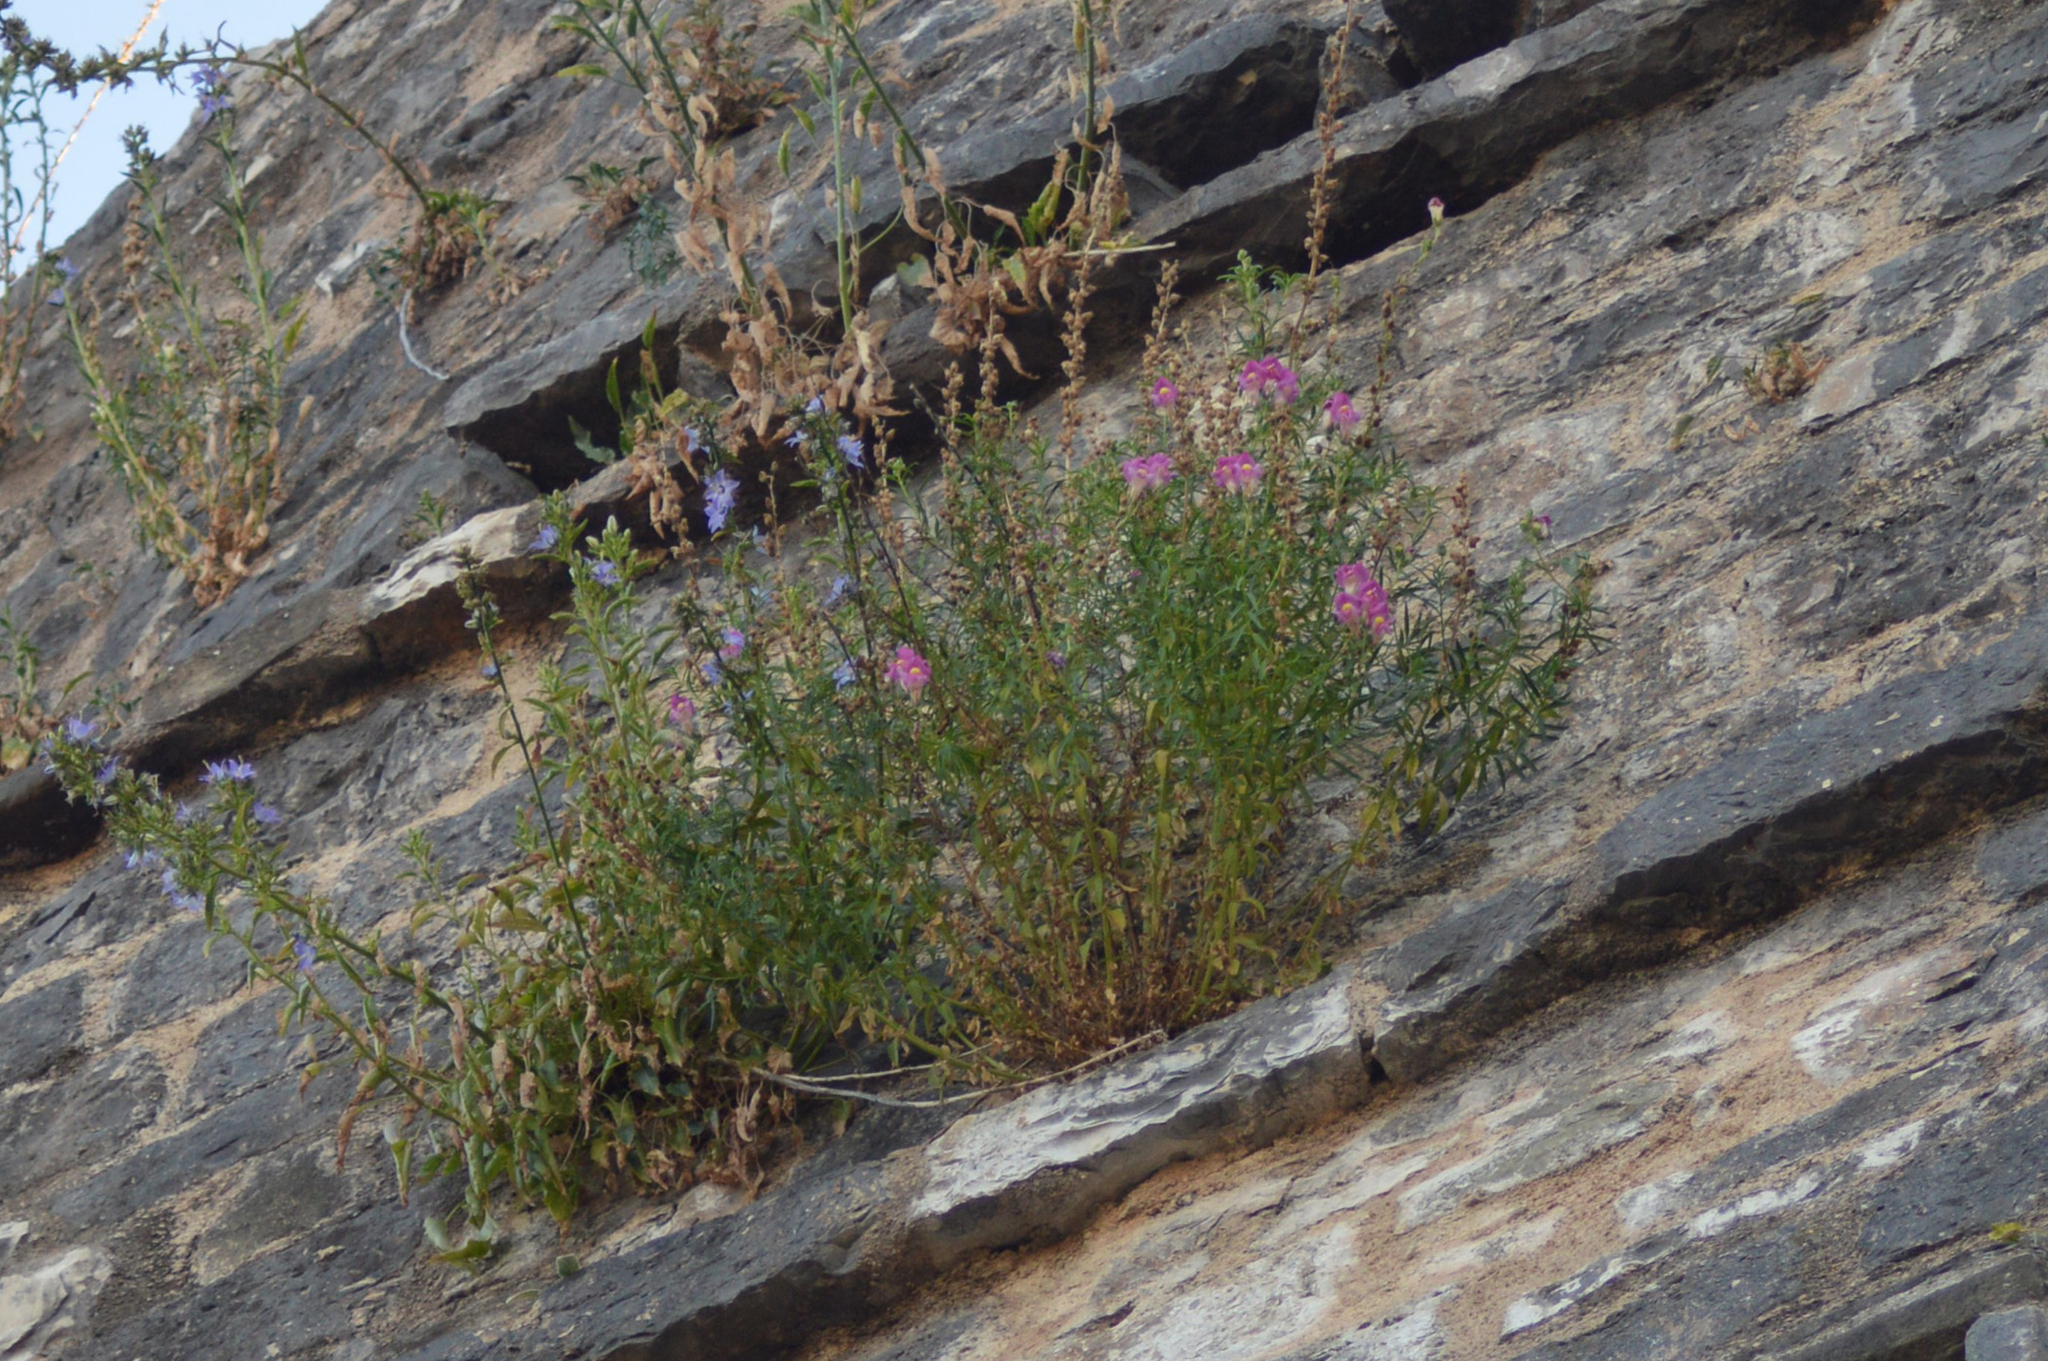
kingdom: Plantae
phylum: Tracheophyta
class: Magnoliopsida
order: Lamiales
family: Plantaginaceae
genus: Antirrhinum
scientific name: Antirrhinum majus
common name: Snapdragon
